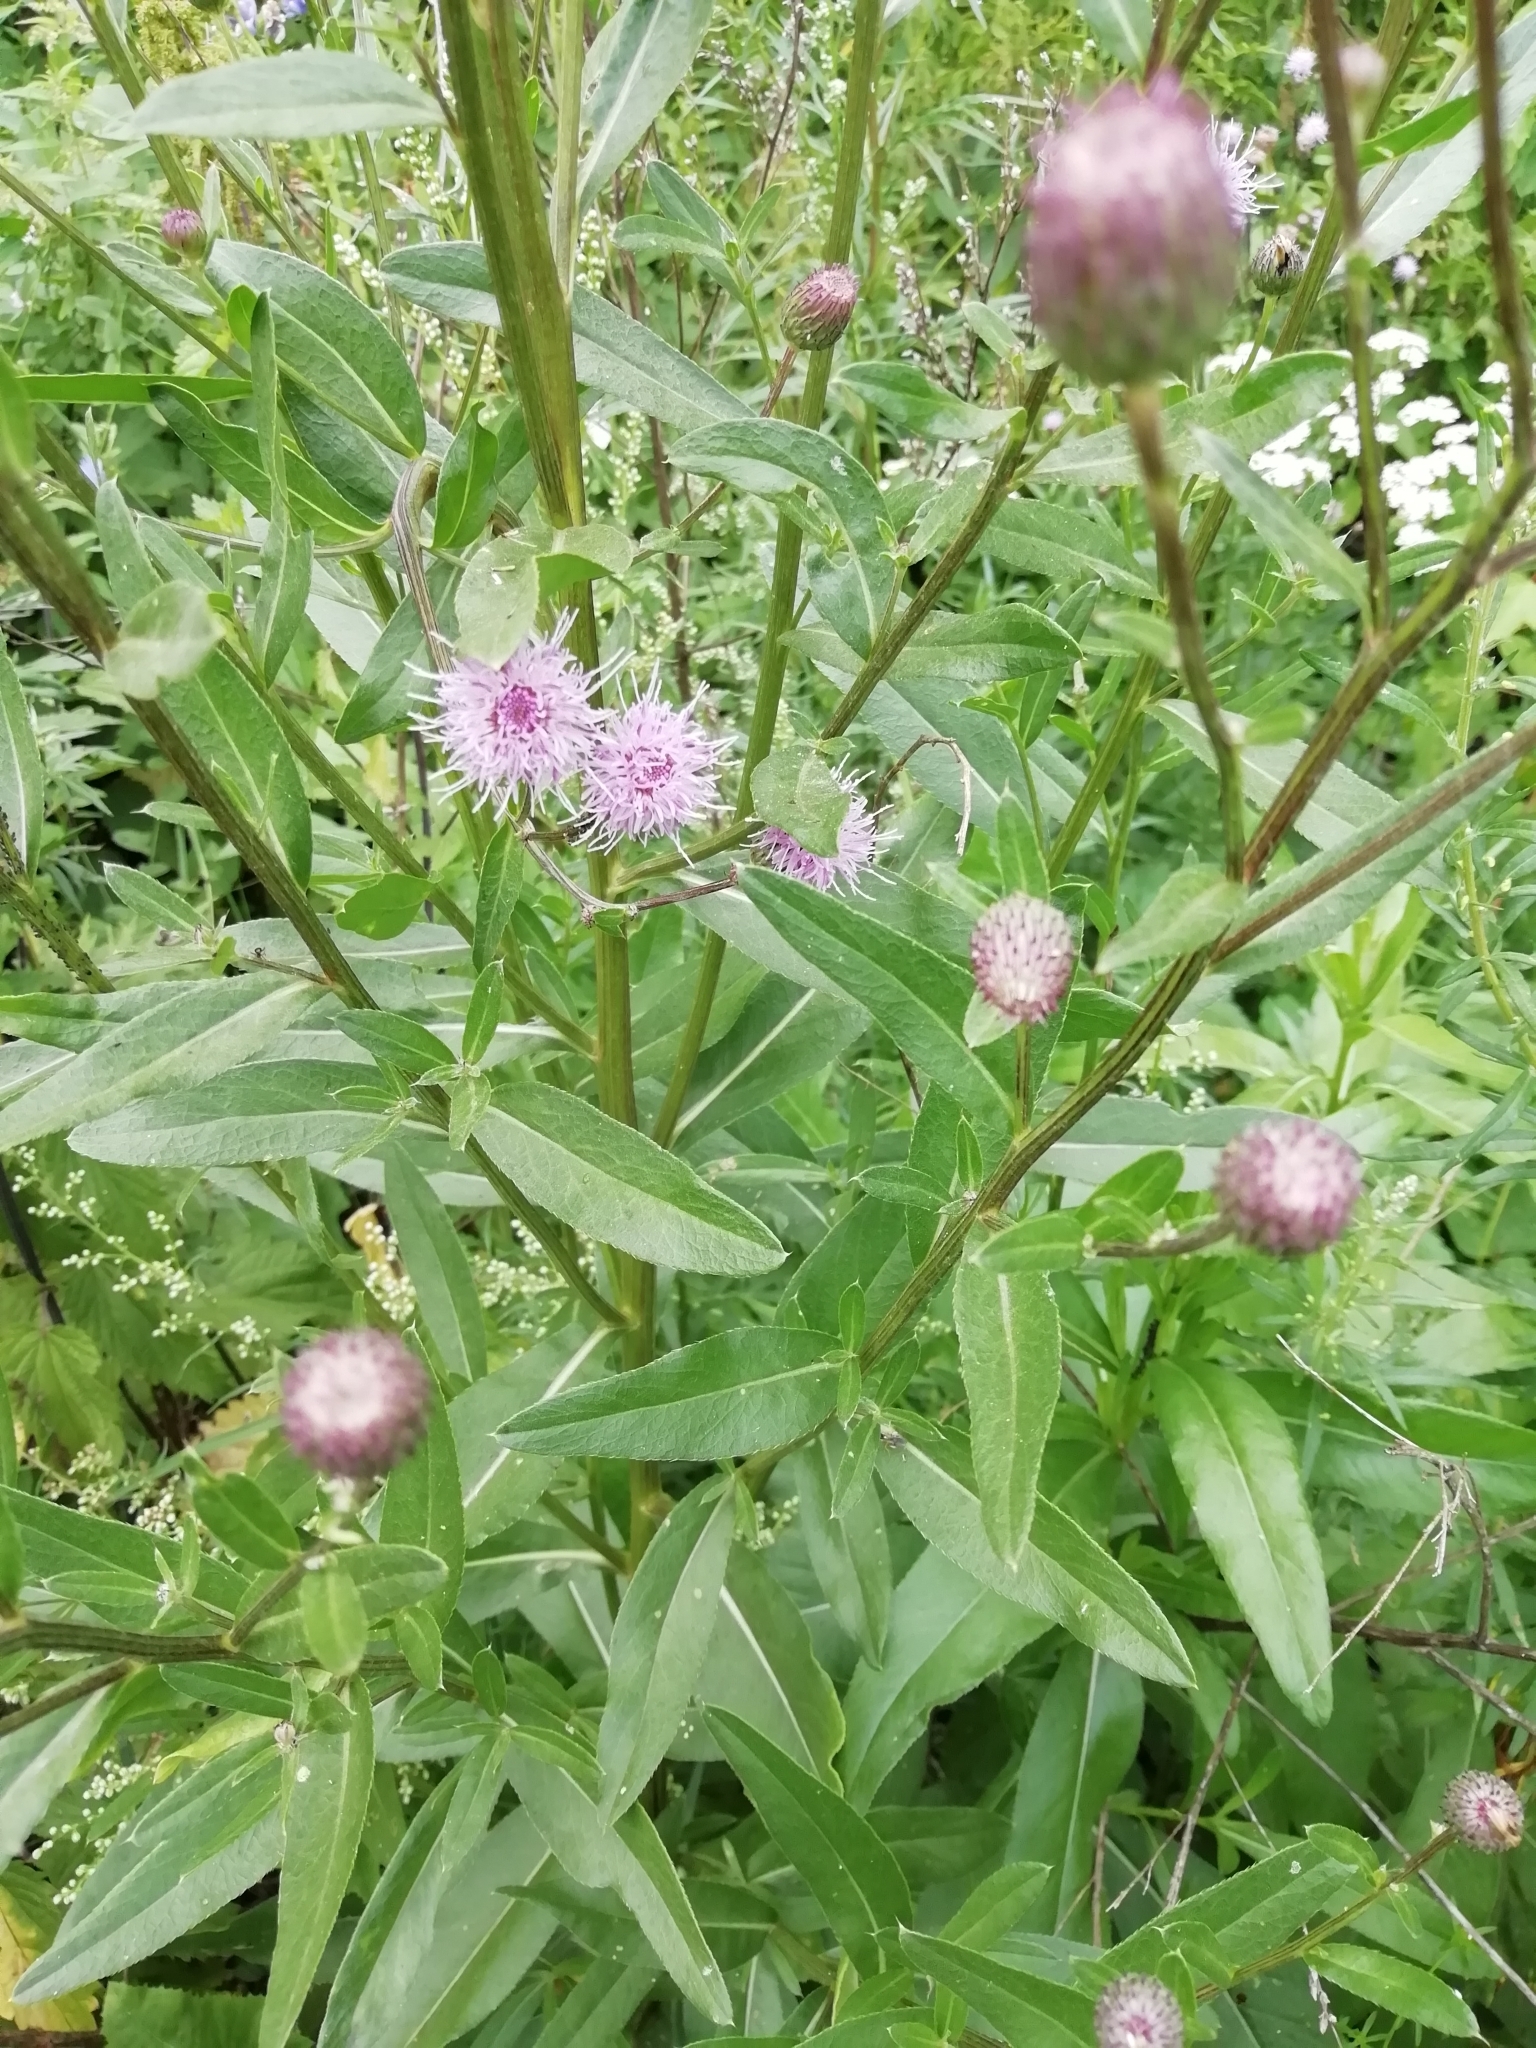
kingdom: Plantae
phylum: Tracheophyta
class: Magnoliopsida
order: Asterales
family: Asteraceae
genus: Cirsium
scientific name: Cirsium arvense
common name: Creeping thistle
